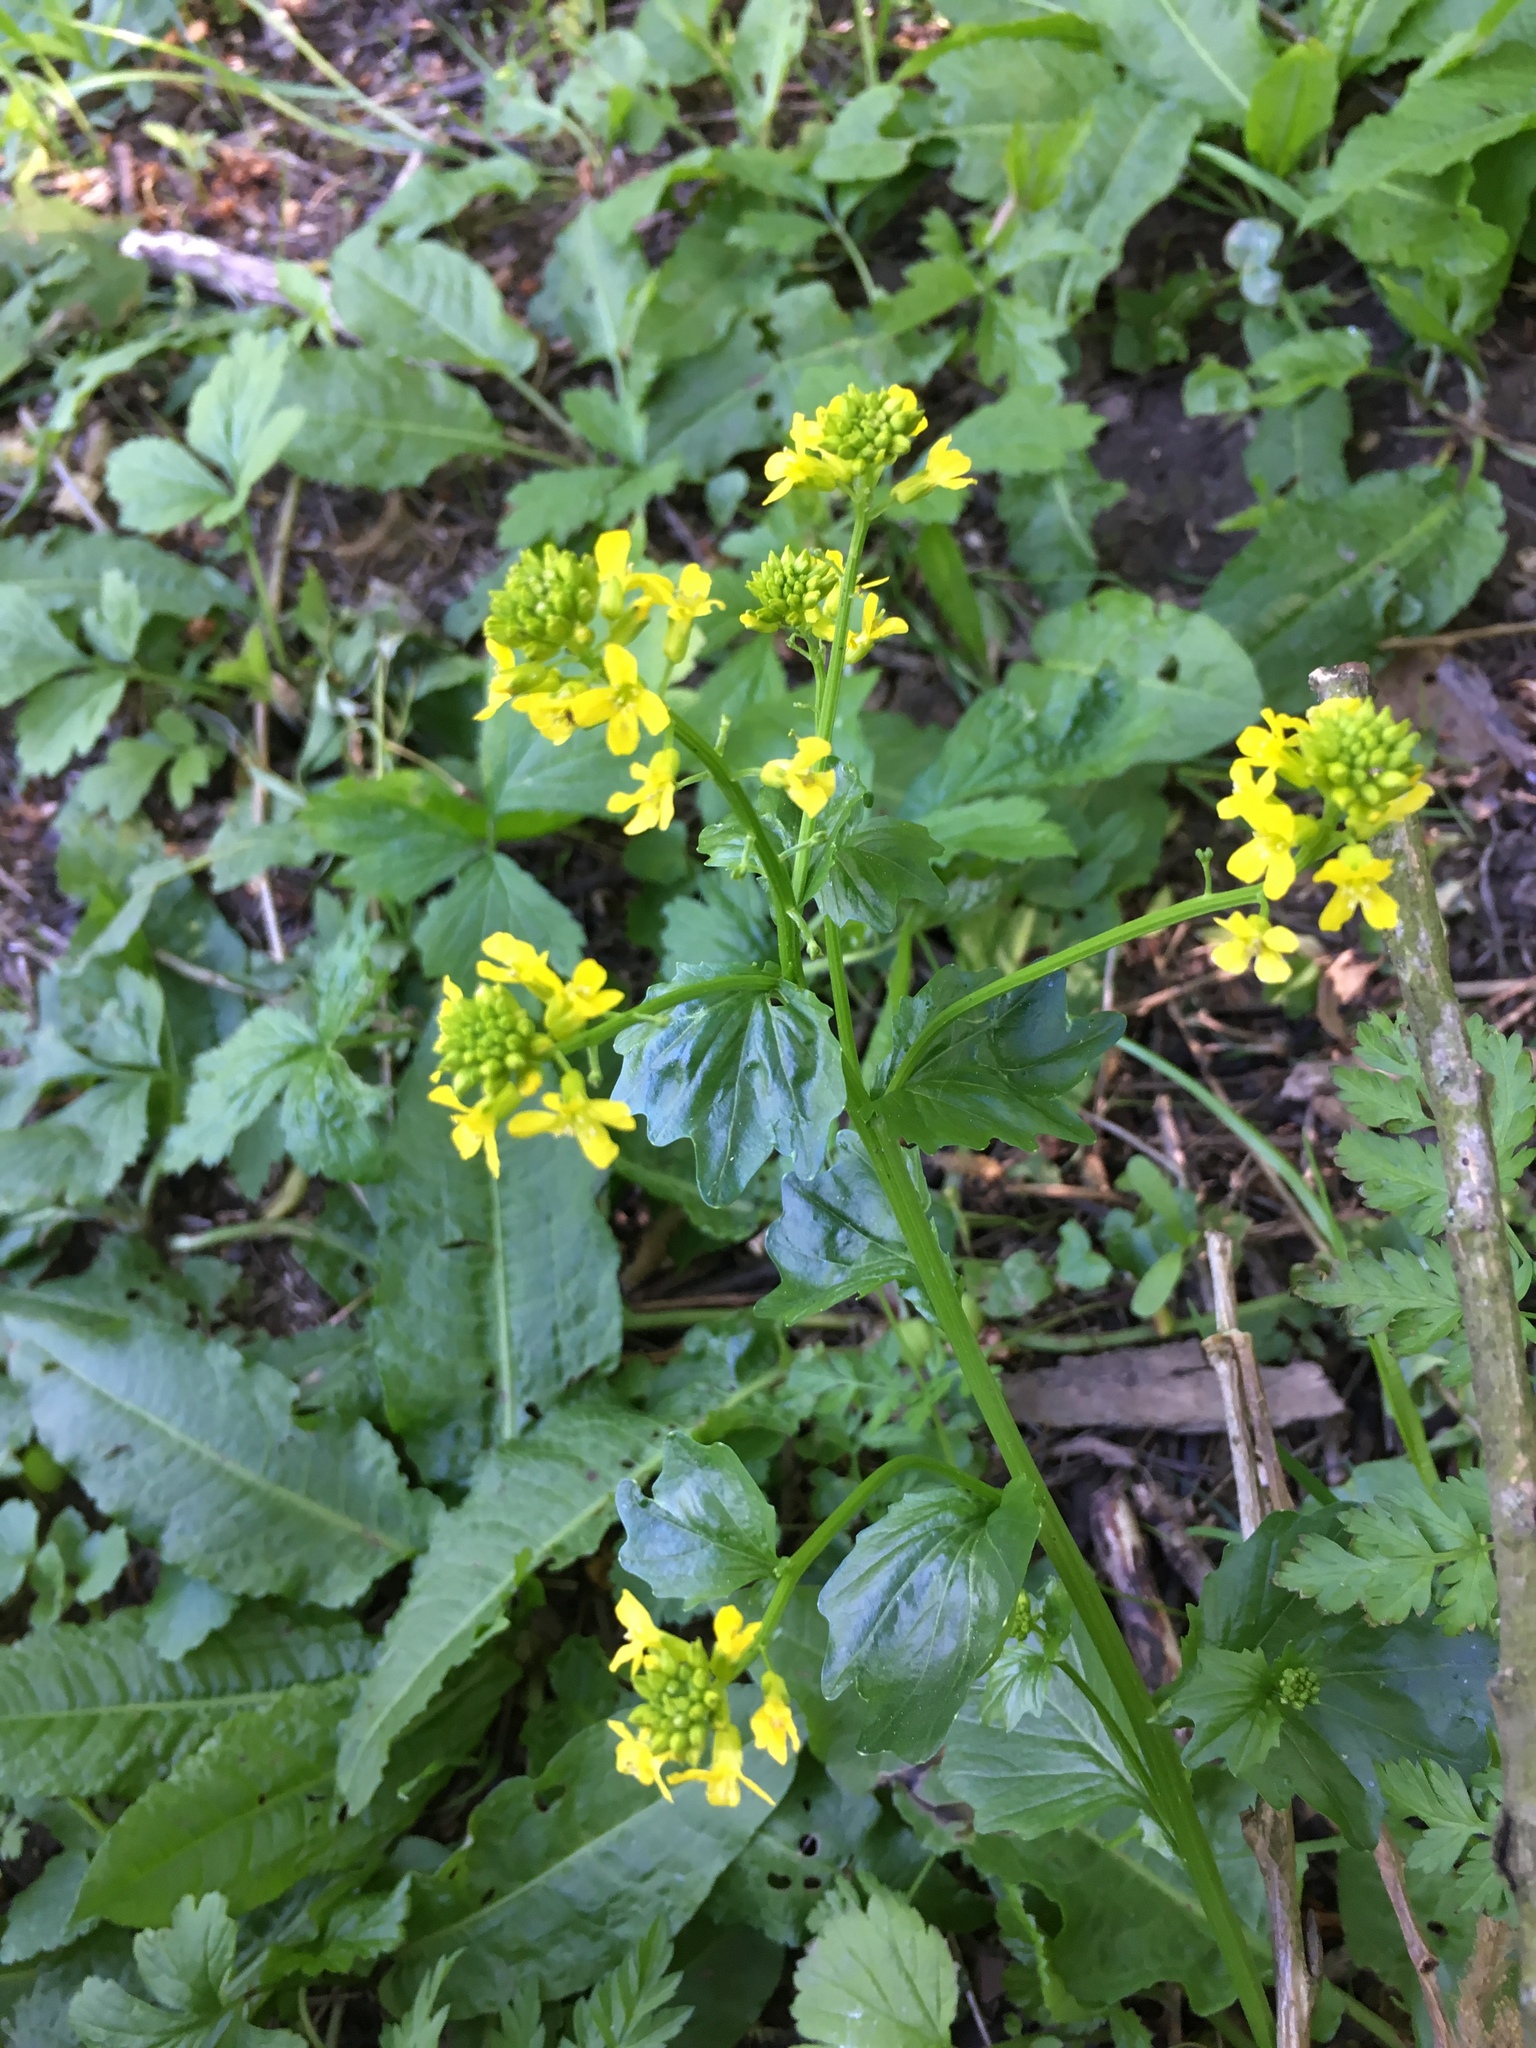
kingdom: Plantae
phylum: Tracheophyta
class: Magnoliopsida
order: Brassicales
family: Brassicaceae
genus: Barbarea
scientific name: Barbarea vulgaris
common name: Cressy-greens
